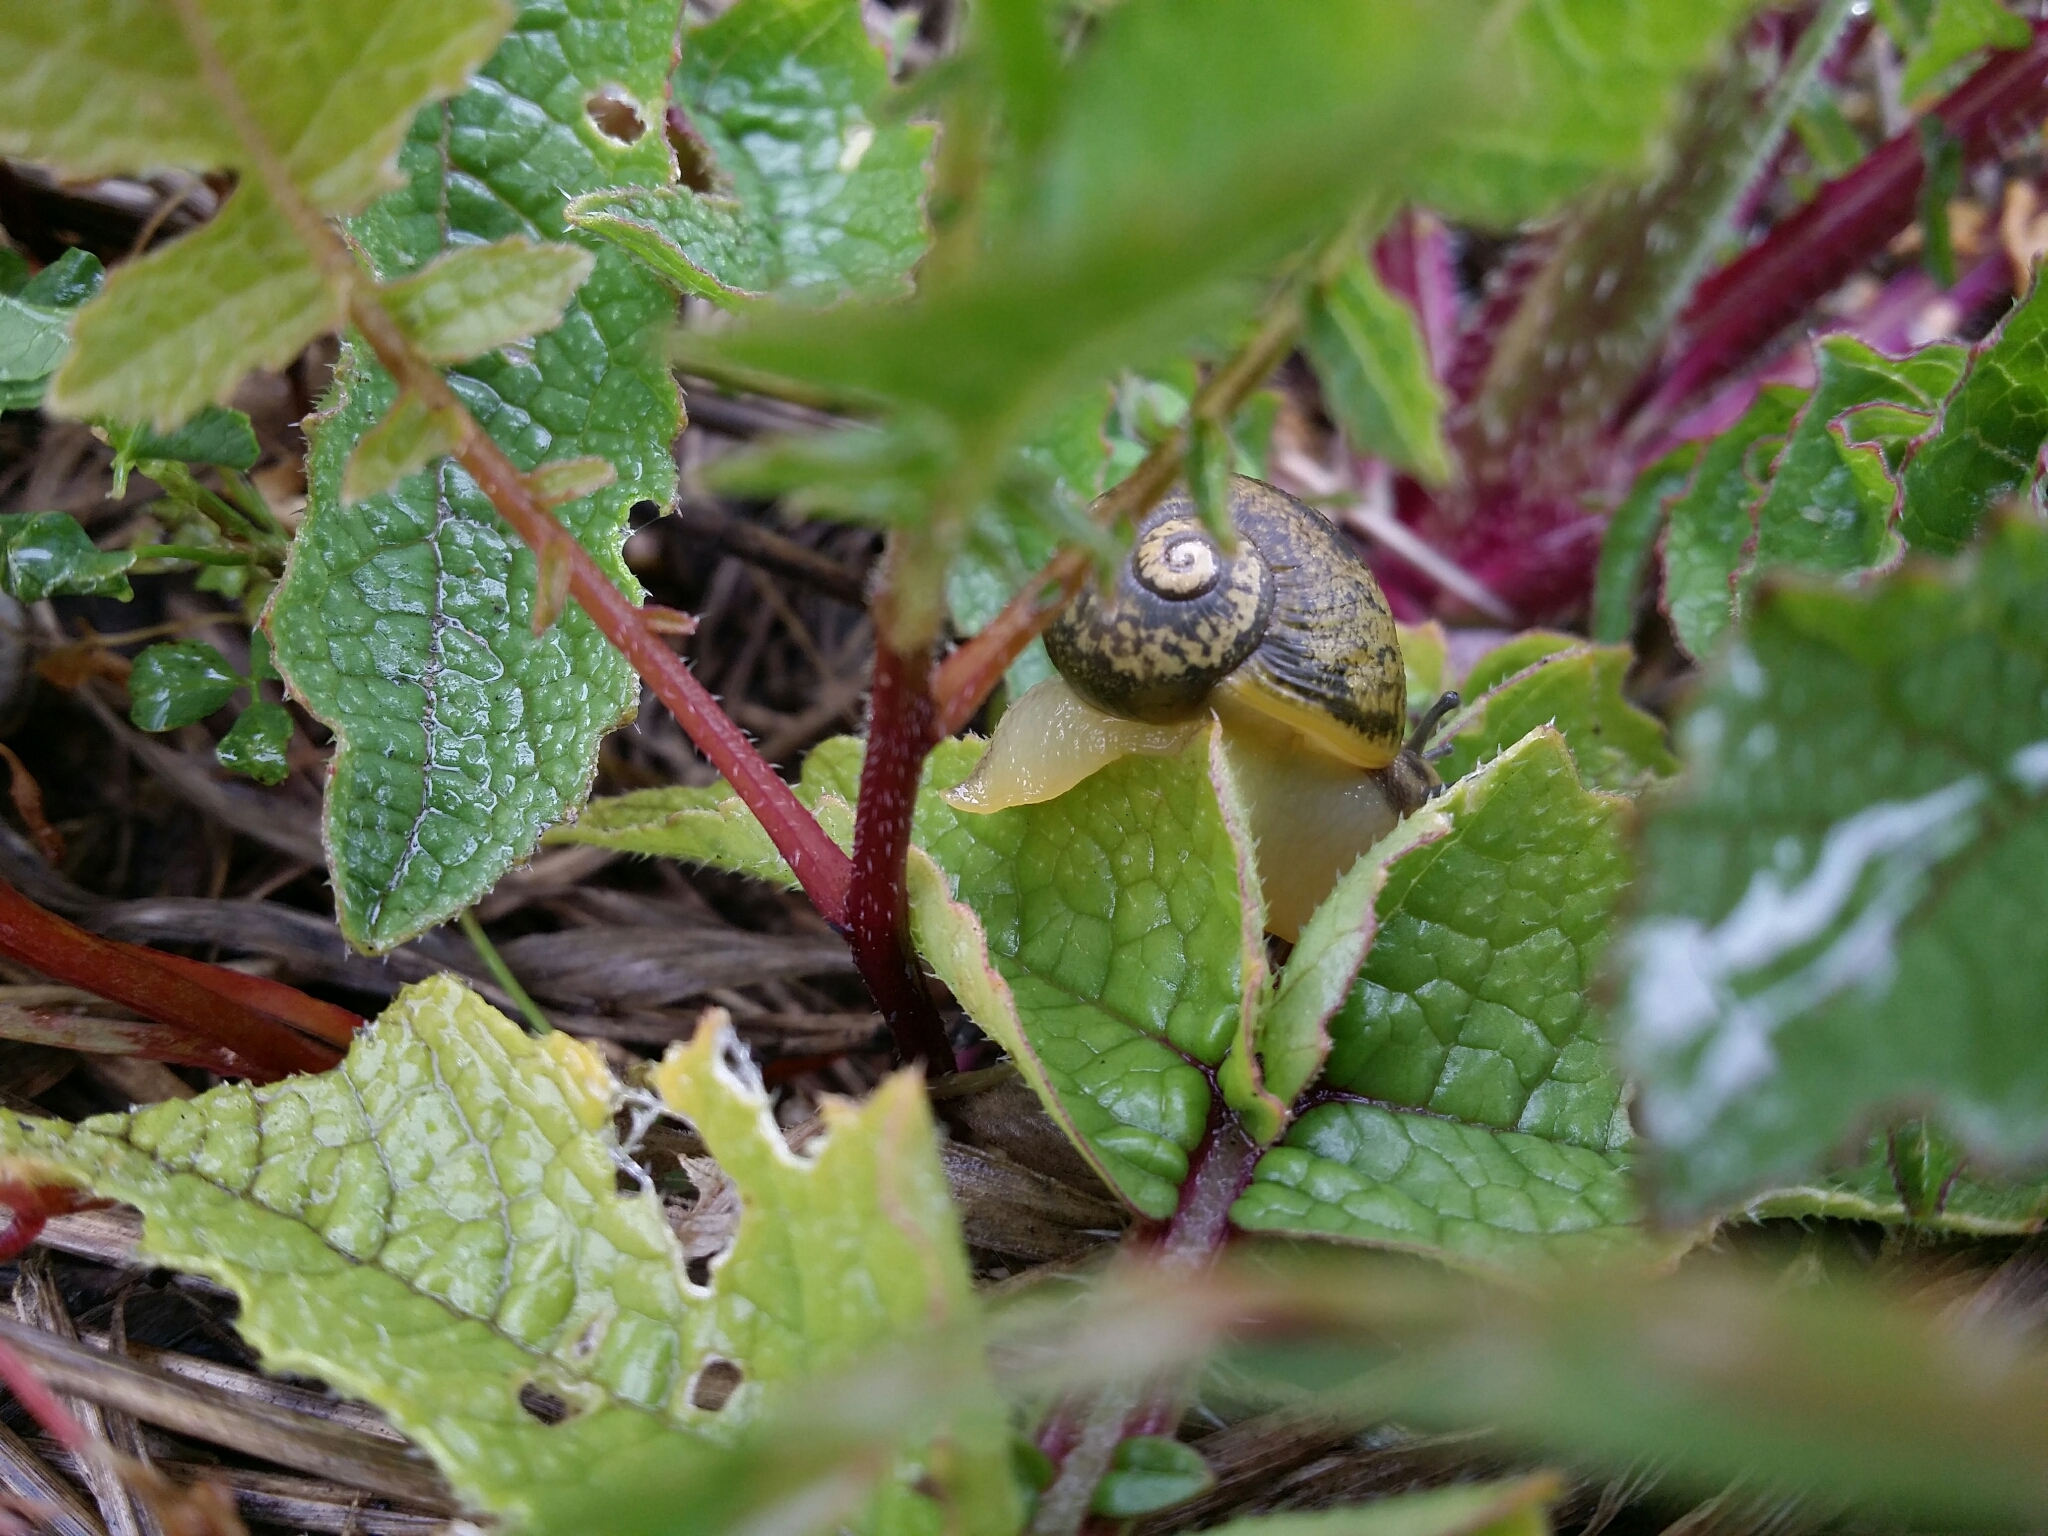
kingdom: Animalia
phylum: Mollusca
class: Gastropoda
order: Stylommatophora
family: Helicidae
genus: Cantareus
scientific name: Cantareus apertus
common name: Green gardensnail
